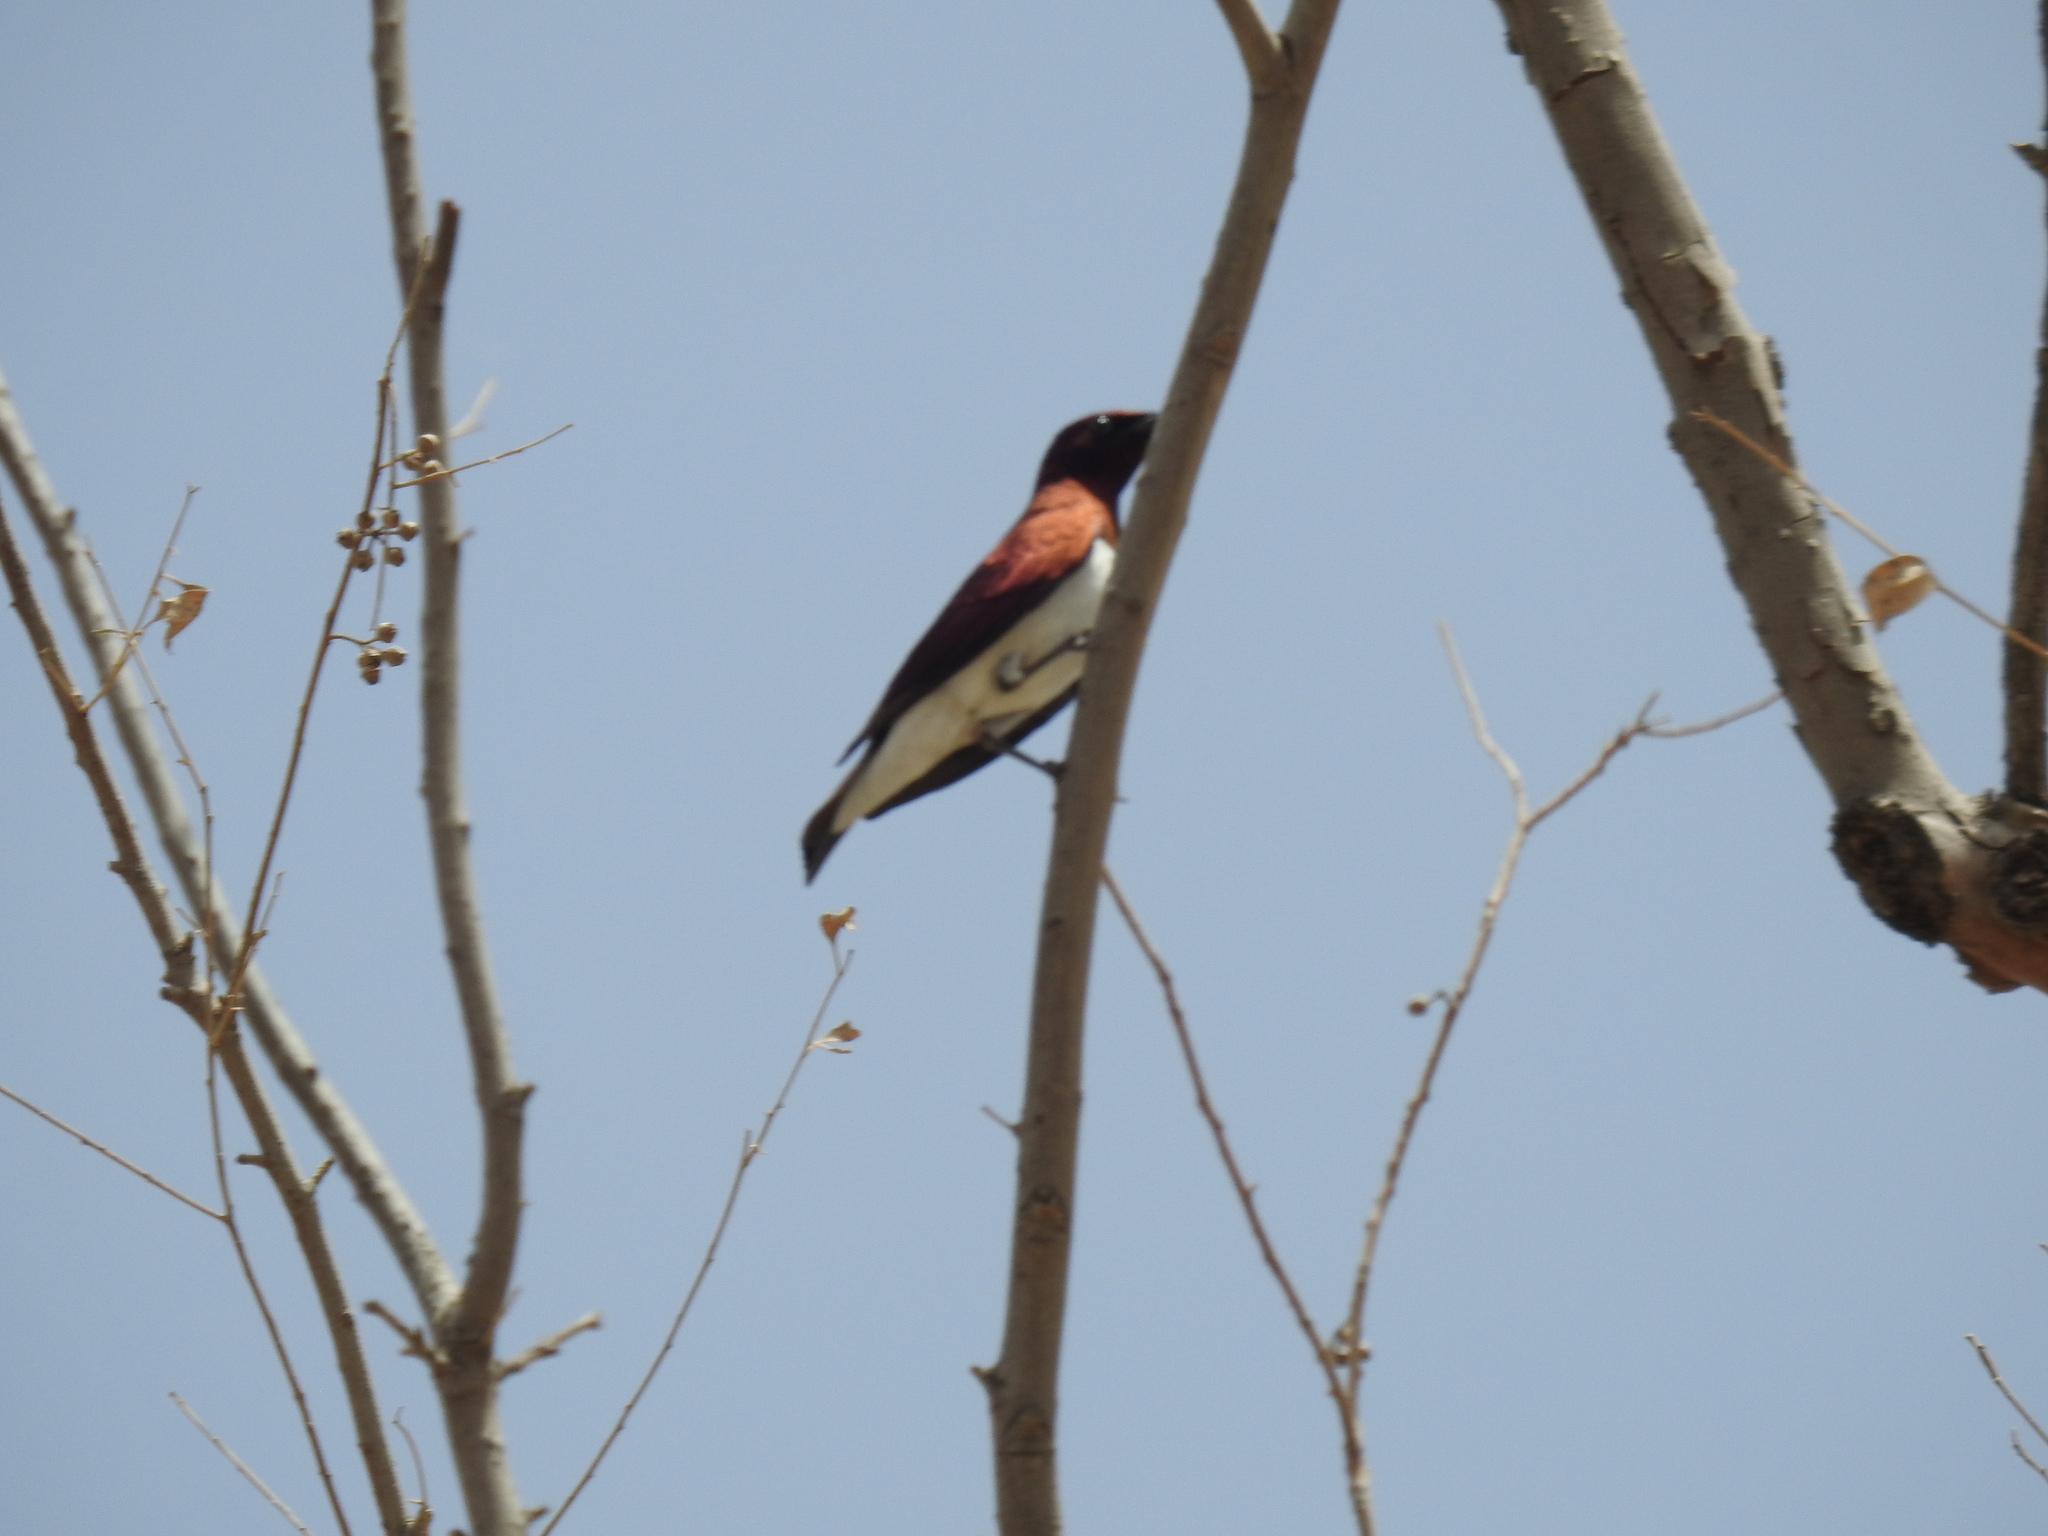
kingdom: Animalia
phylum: Chordata
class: Aves
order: Passeriformes
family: Sturnidae
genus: Cinnyricinclus
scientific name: Cinnyricinclus leucogaster
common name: Violet-backed starling
